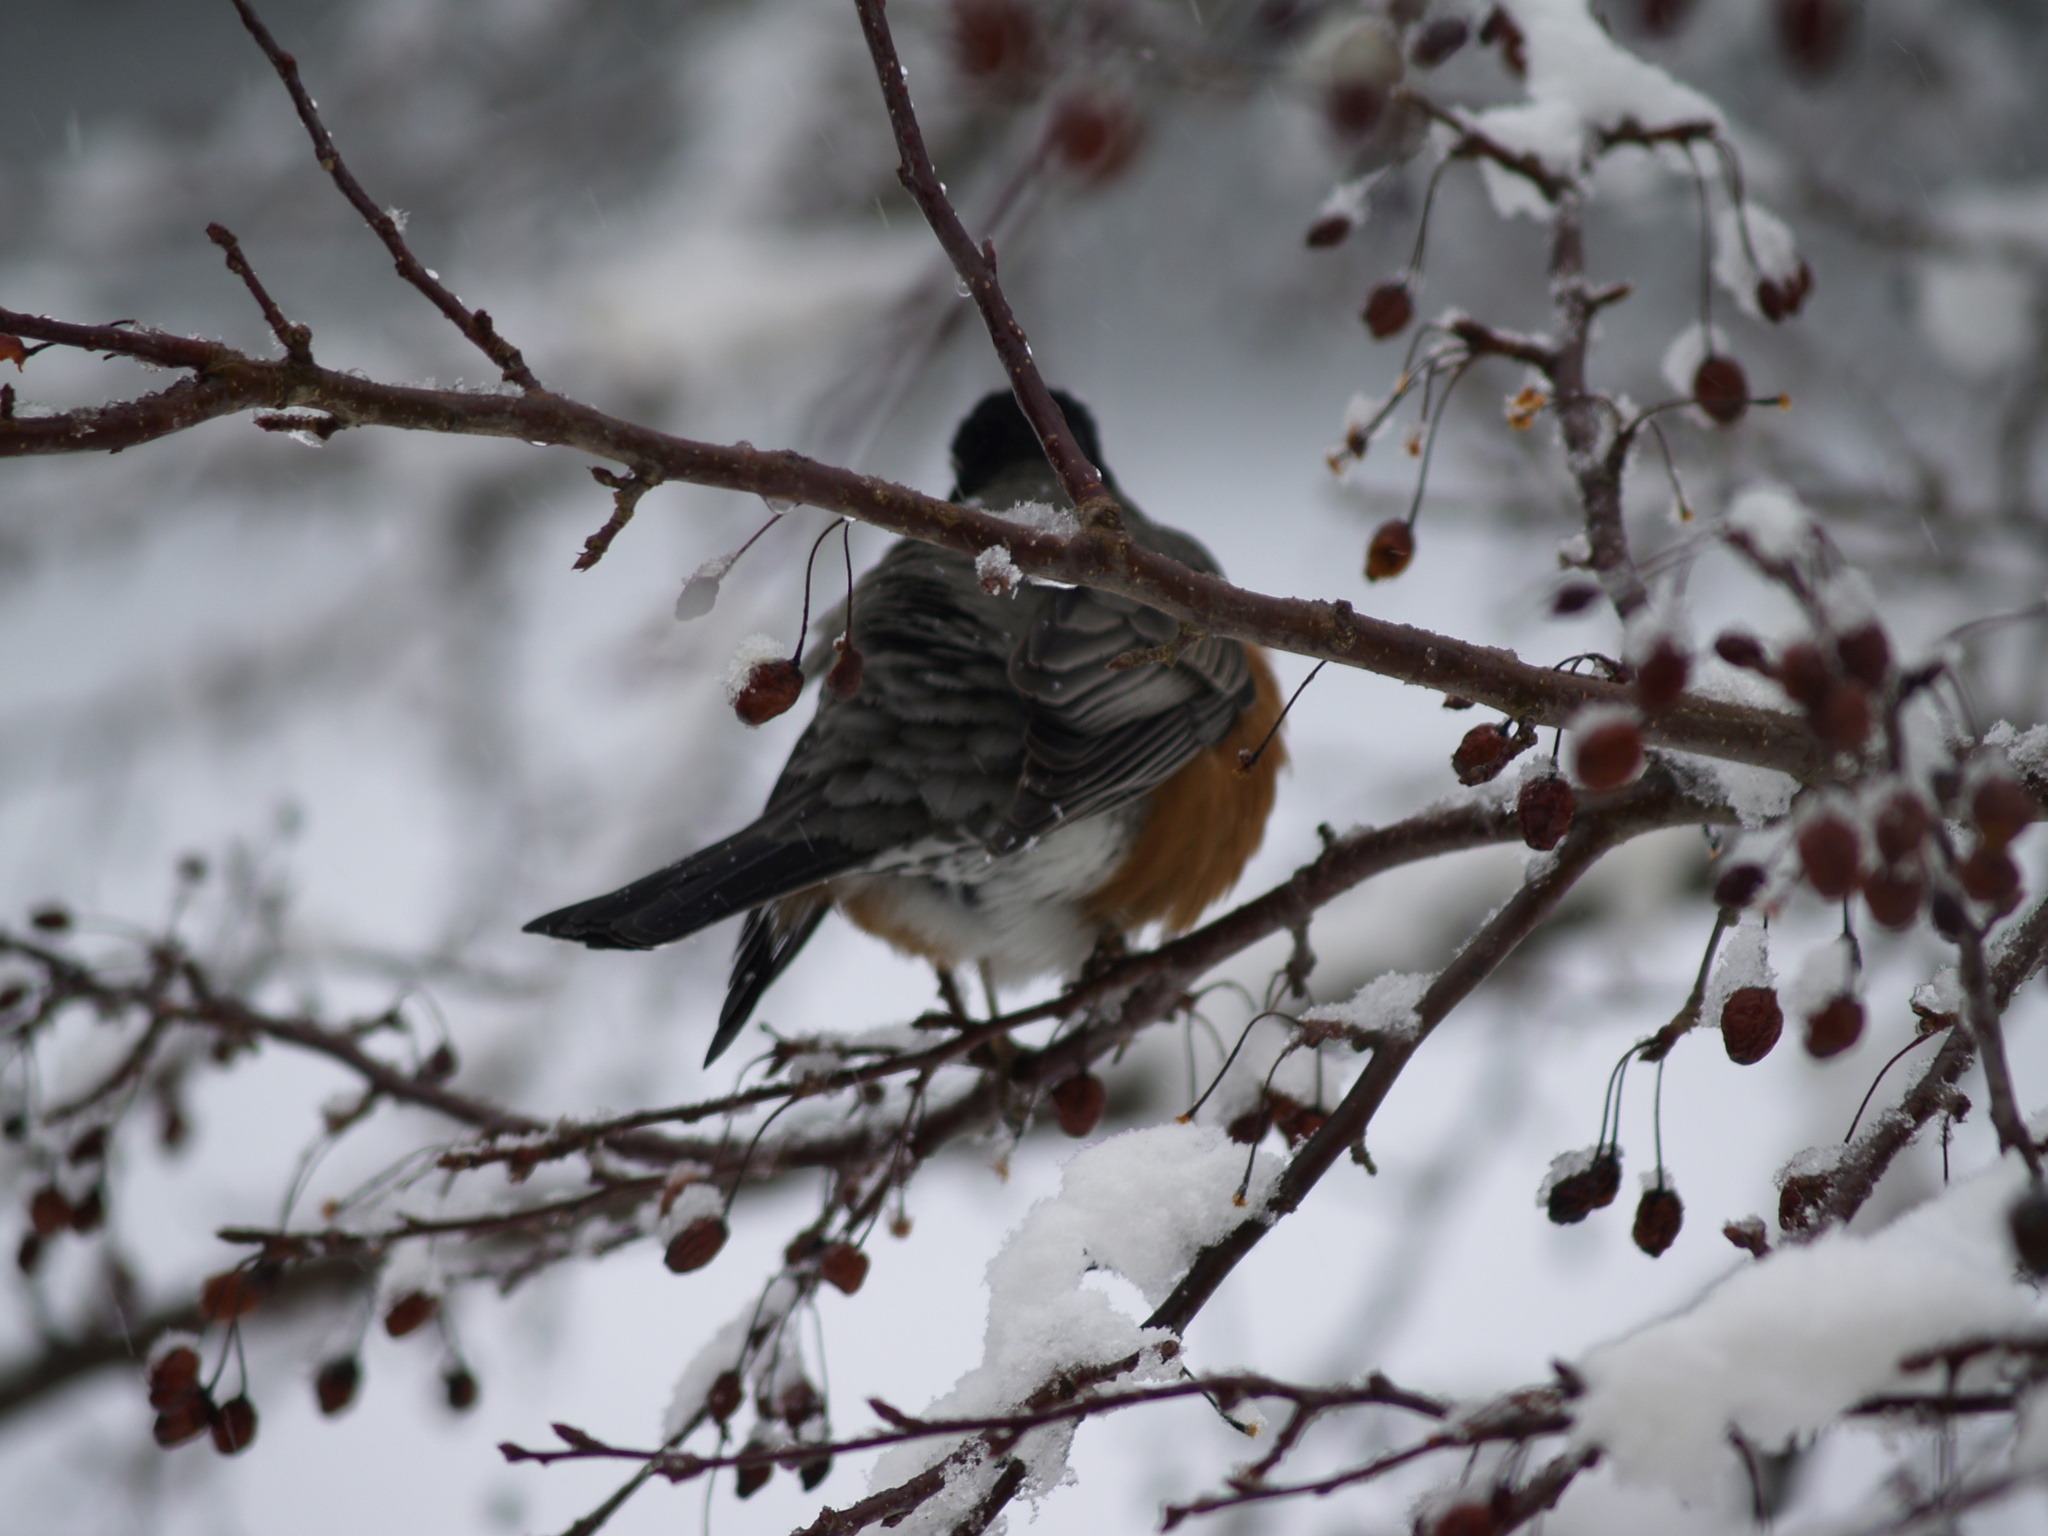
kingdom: Animalia
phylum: Chordata
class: Aves
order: Passeriformes
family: Turdidae
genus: Turdus
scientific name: Turdus migratorius
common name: American robin
